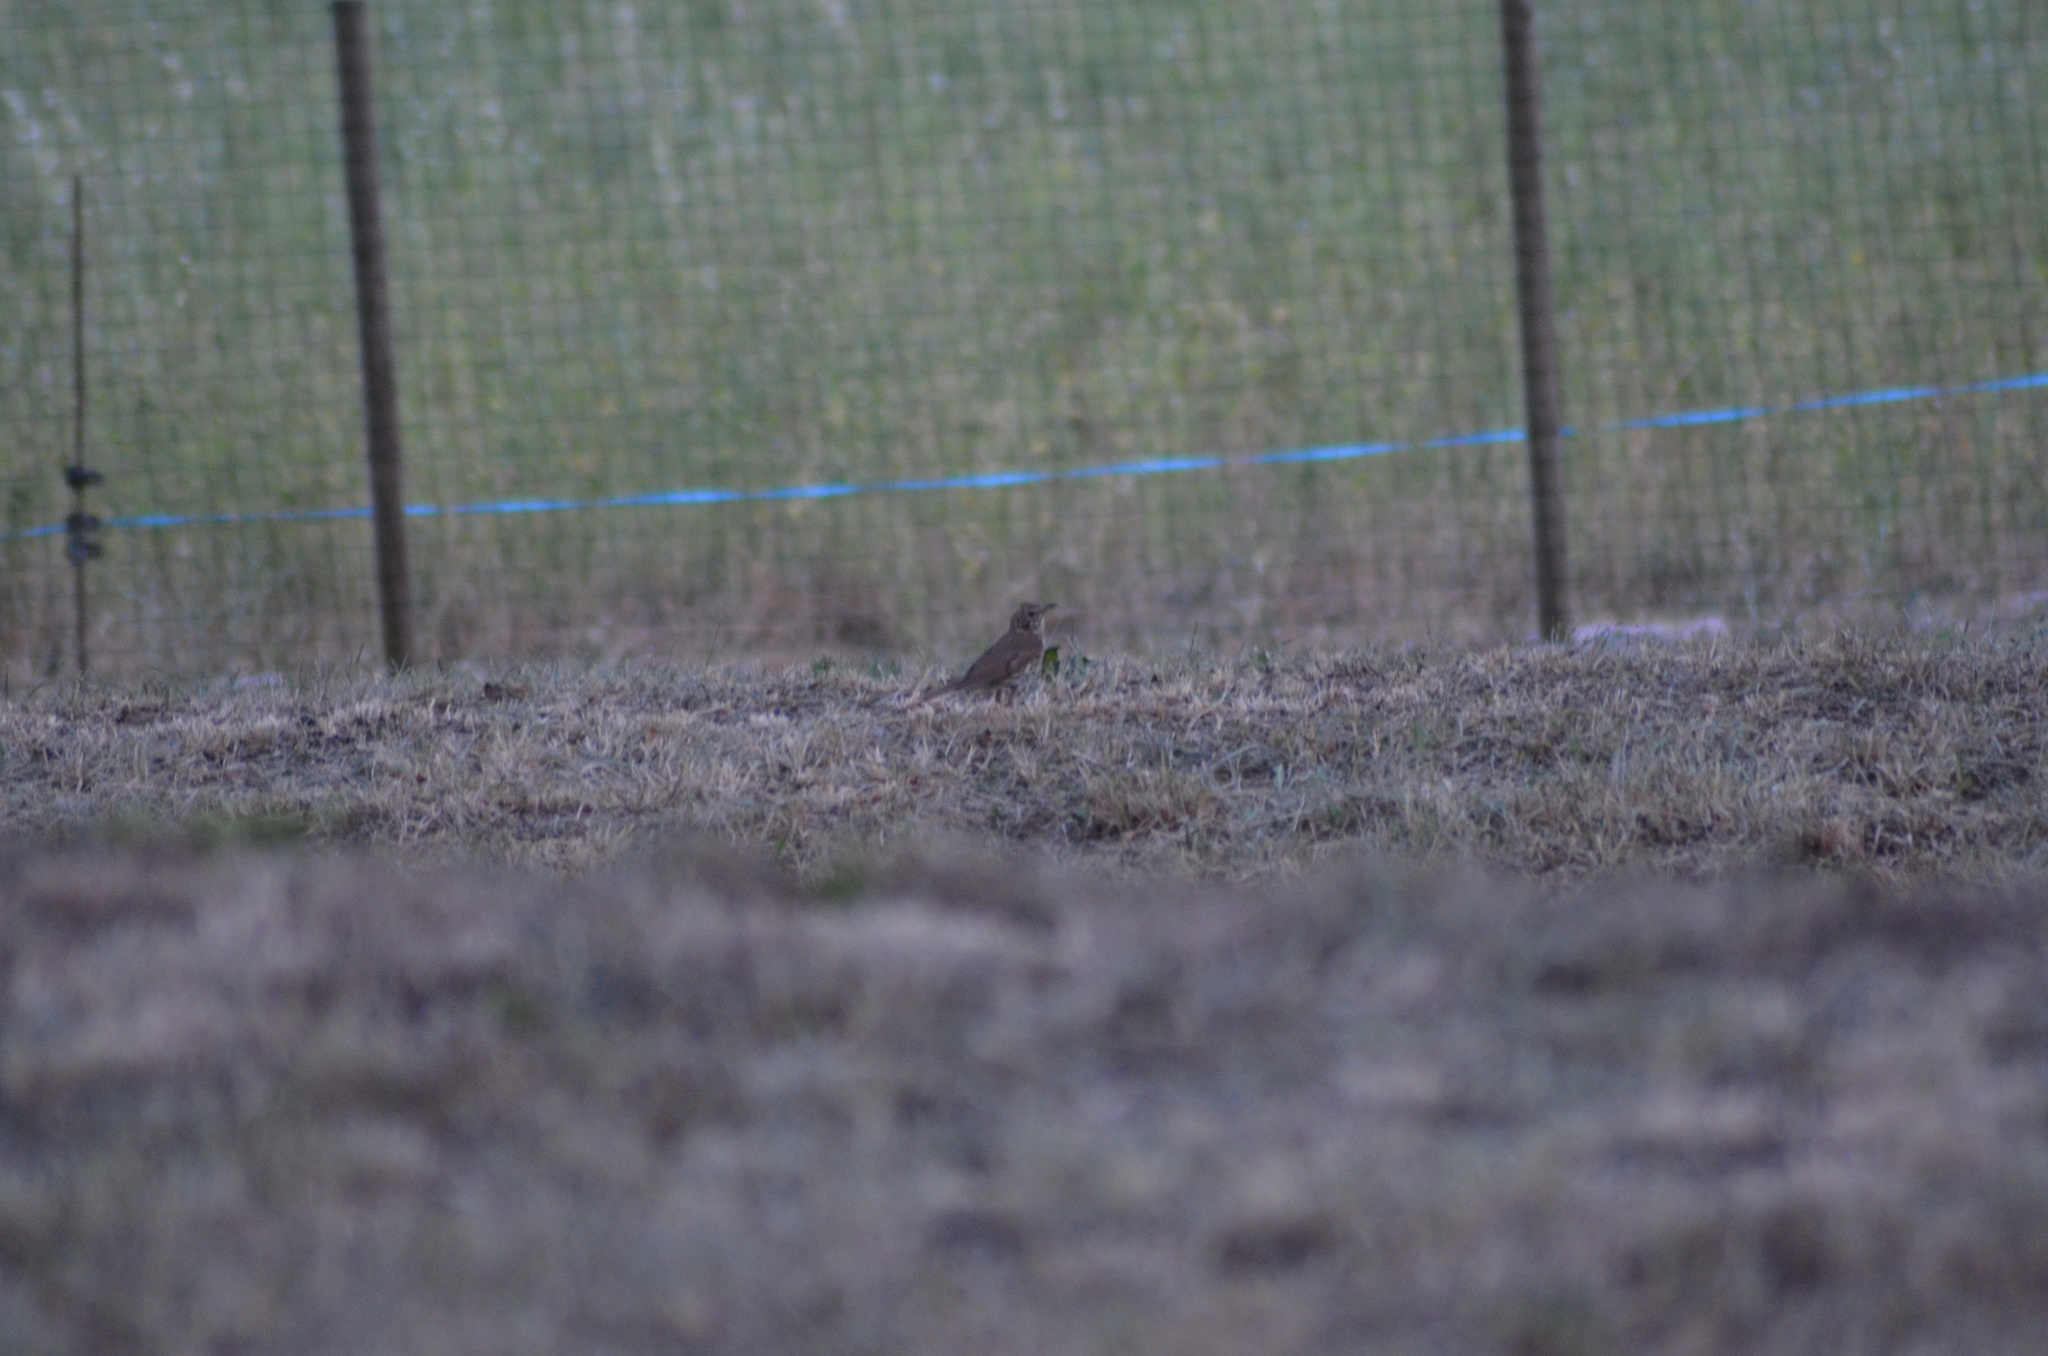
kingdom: Animalia
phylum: Chordata
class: Aves
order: Passeriformes
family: Turdidae
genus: Turdus
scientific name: Turdus philomelos
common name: Song thrush
